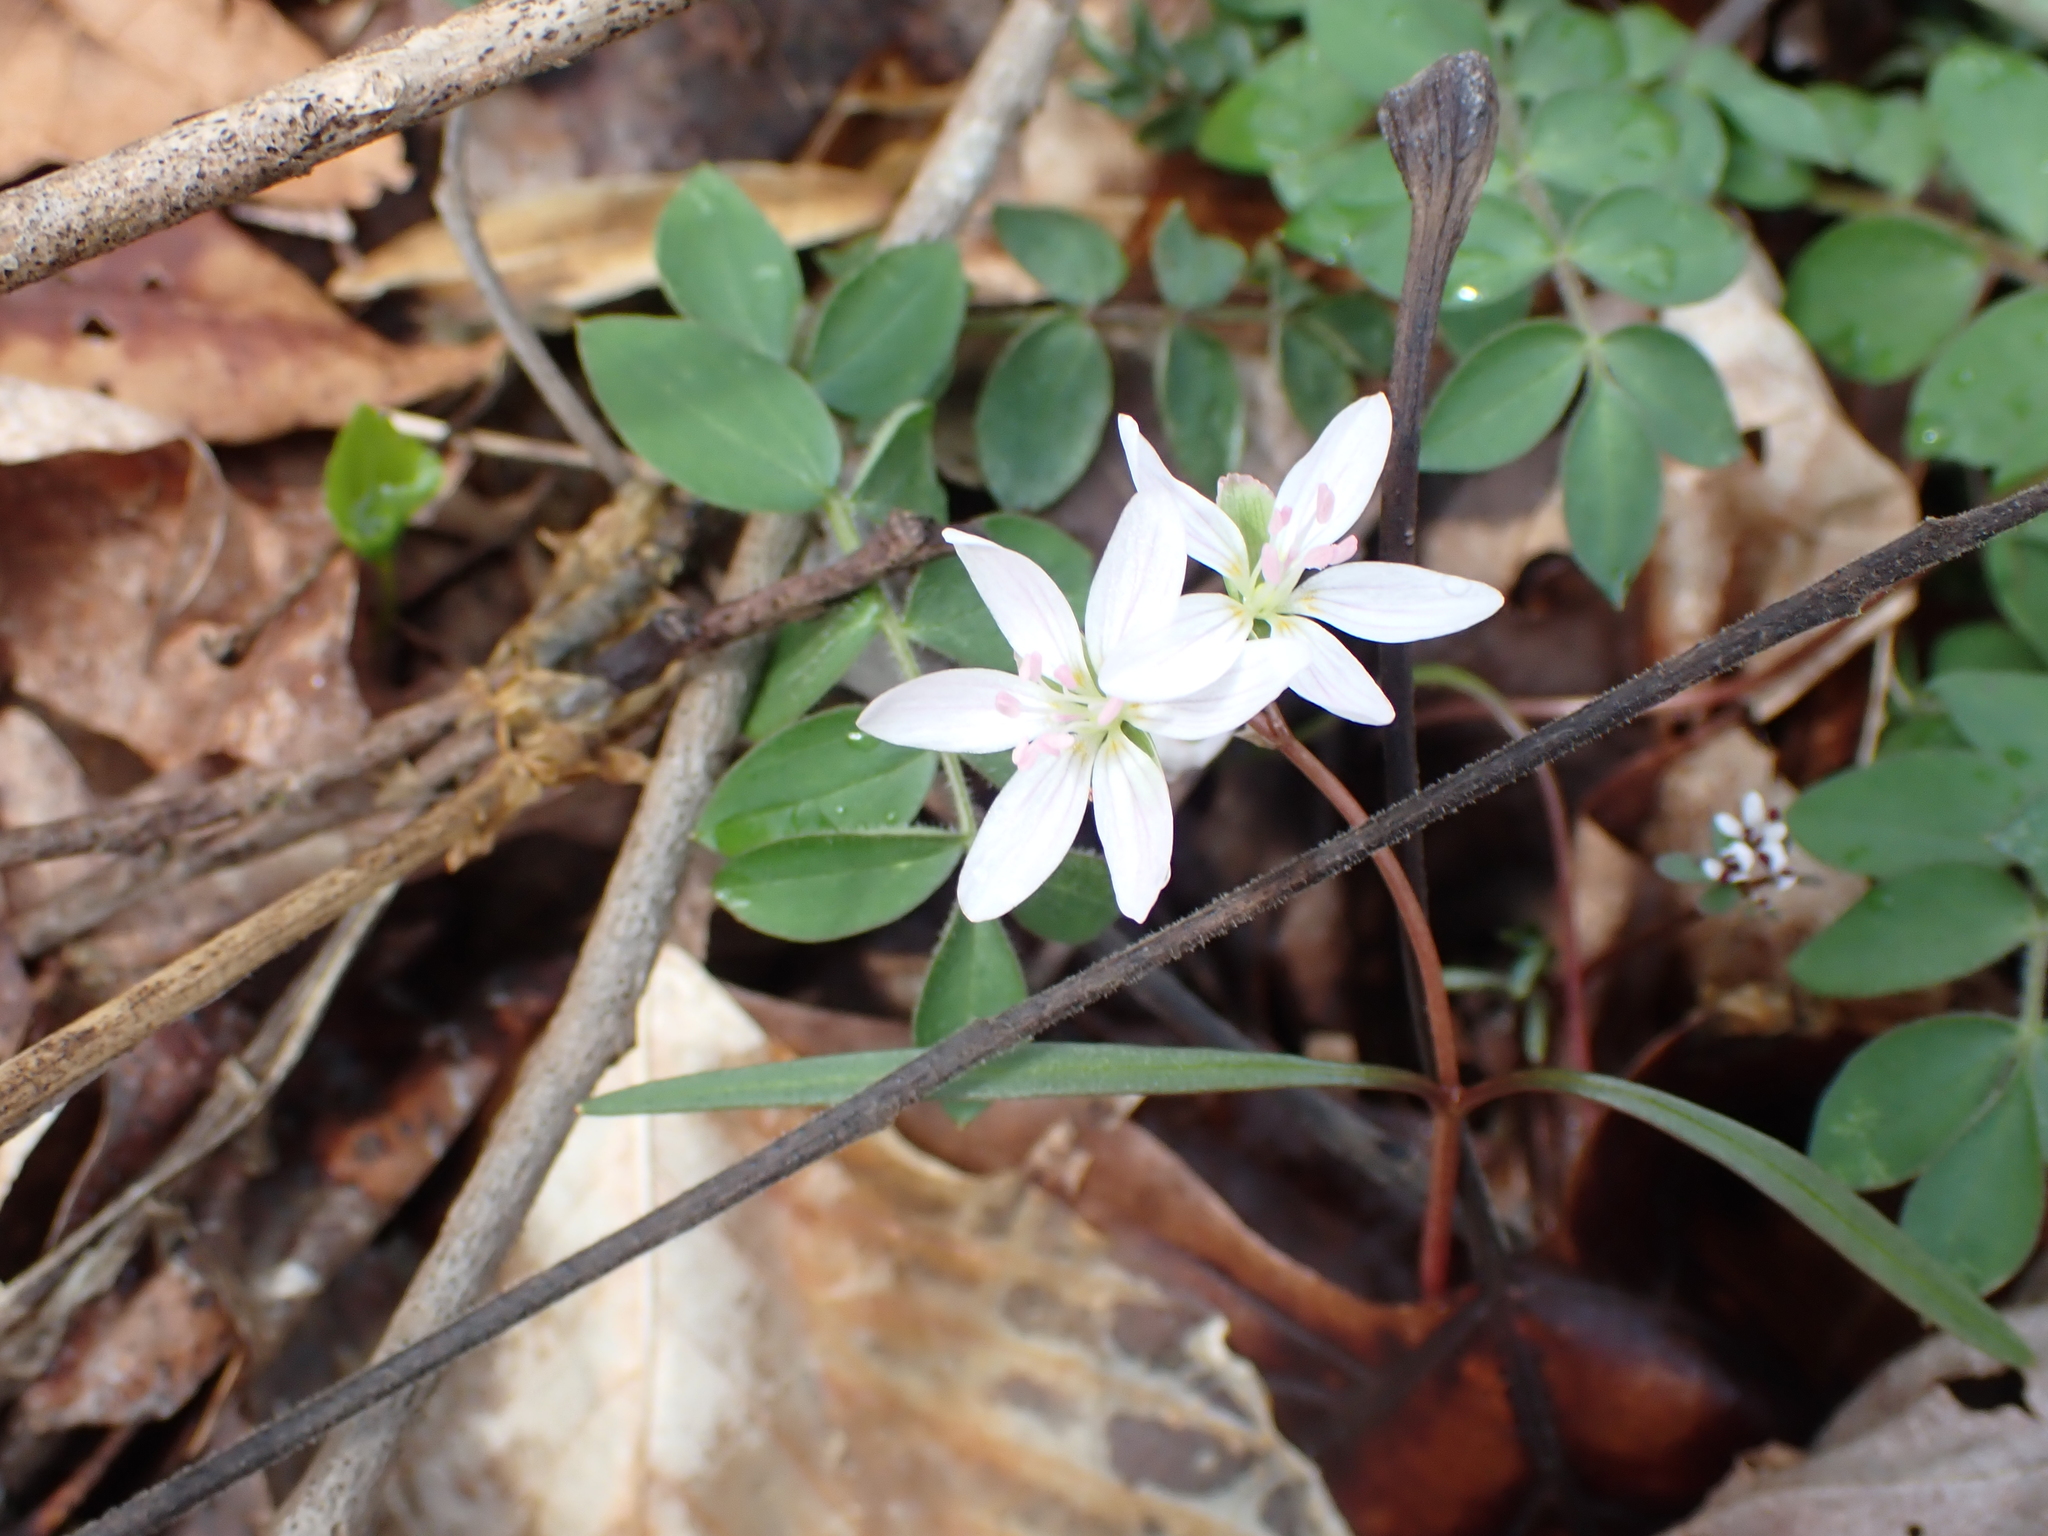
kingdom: Plantae
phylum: Tracheophyta
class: Magnoliopsida
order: Caryophyllales
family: Montiaceae
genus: Claytonia
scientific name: Claytonia virginica
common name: Virginia springbeauty
